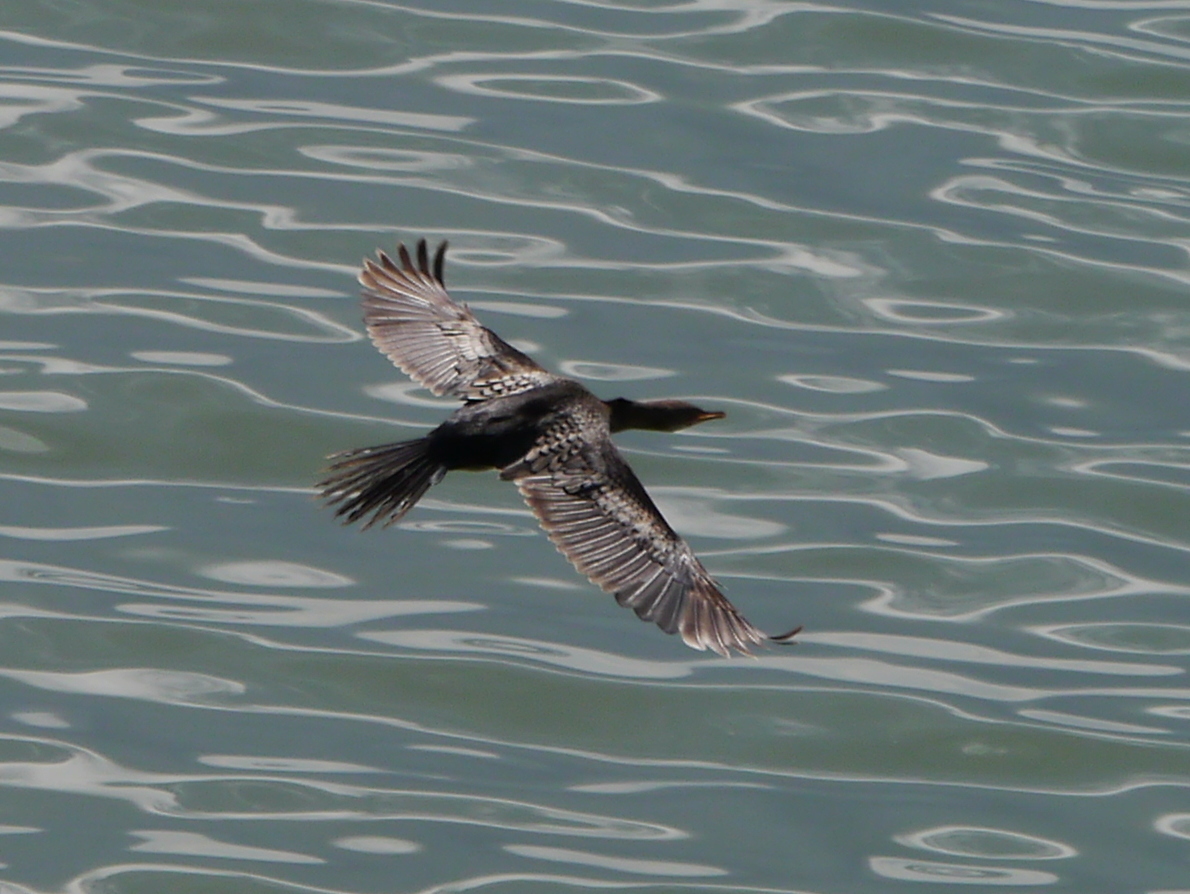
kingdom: Animalia
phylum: Chordata
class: Aves
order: Suliformes
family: Phalacrocoracidae
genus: Microcarbo
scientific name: Microcarbo africanus
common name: Long-tailed cormorant
